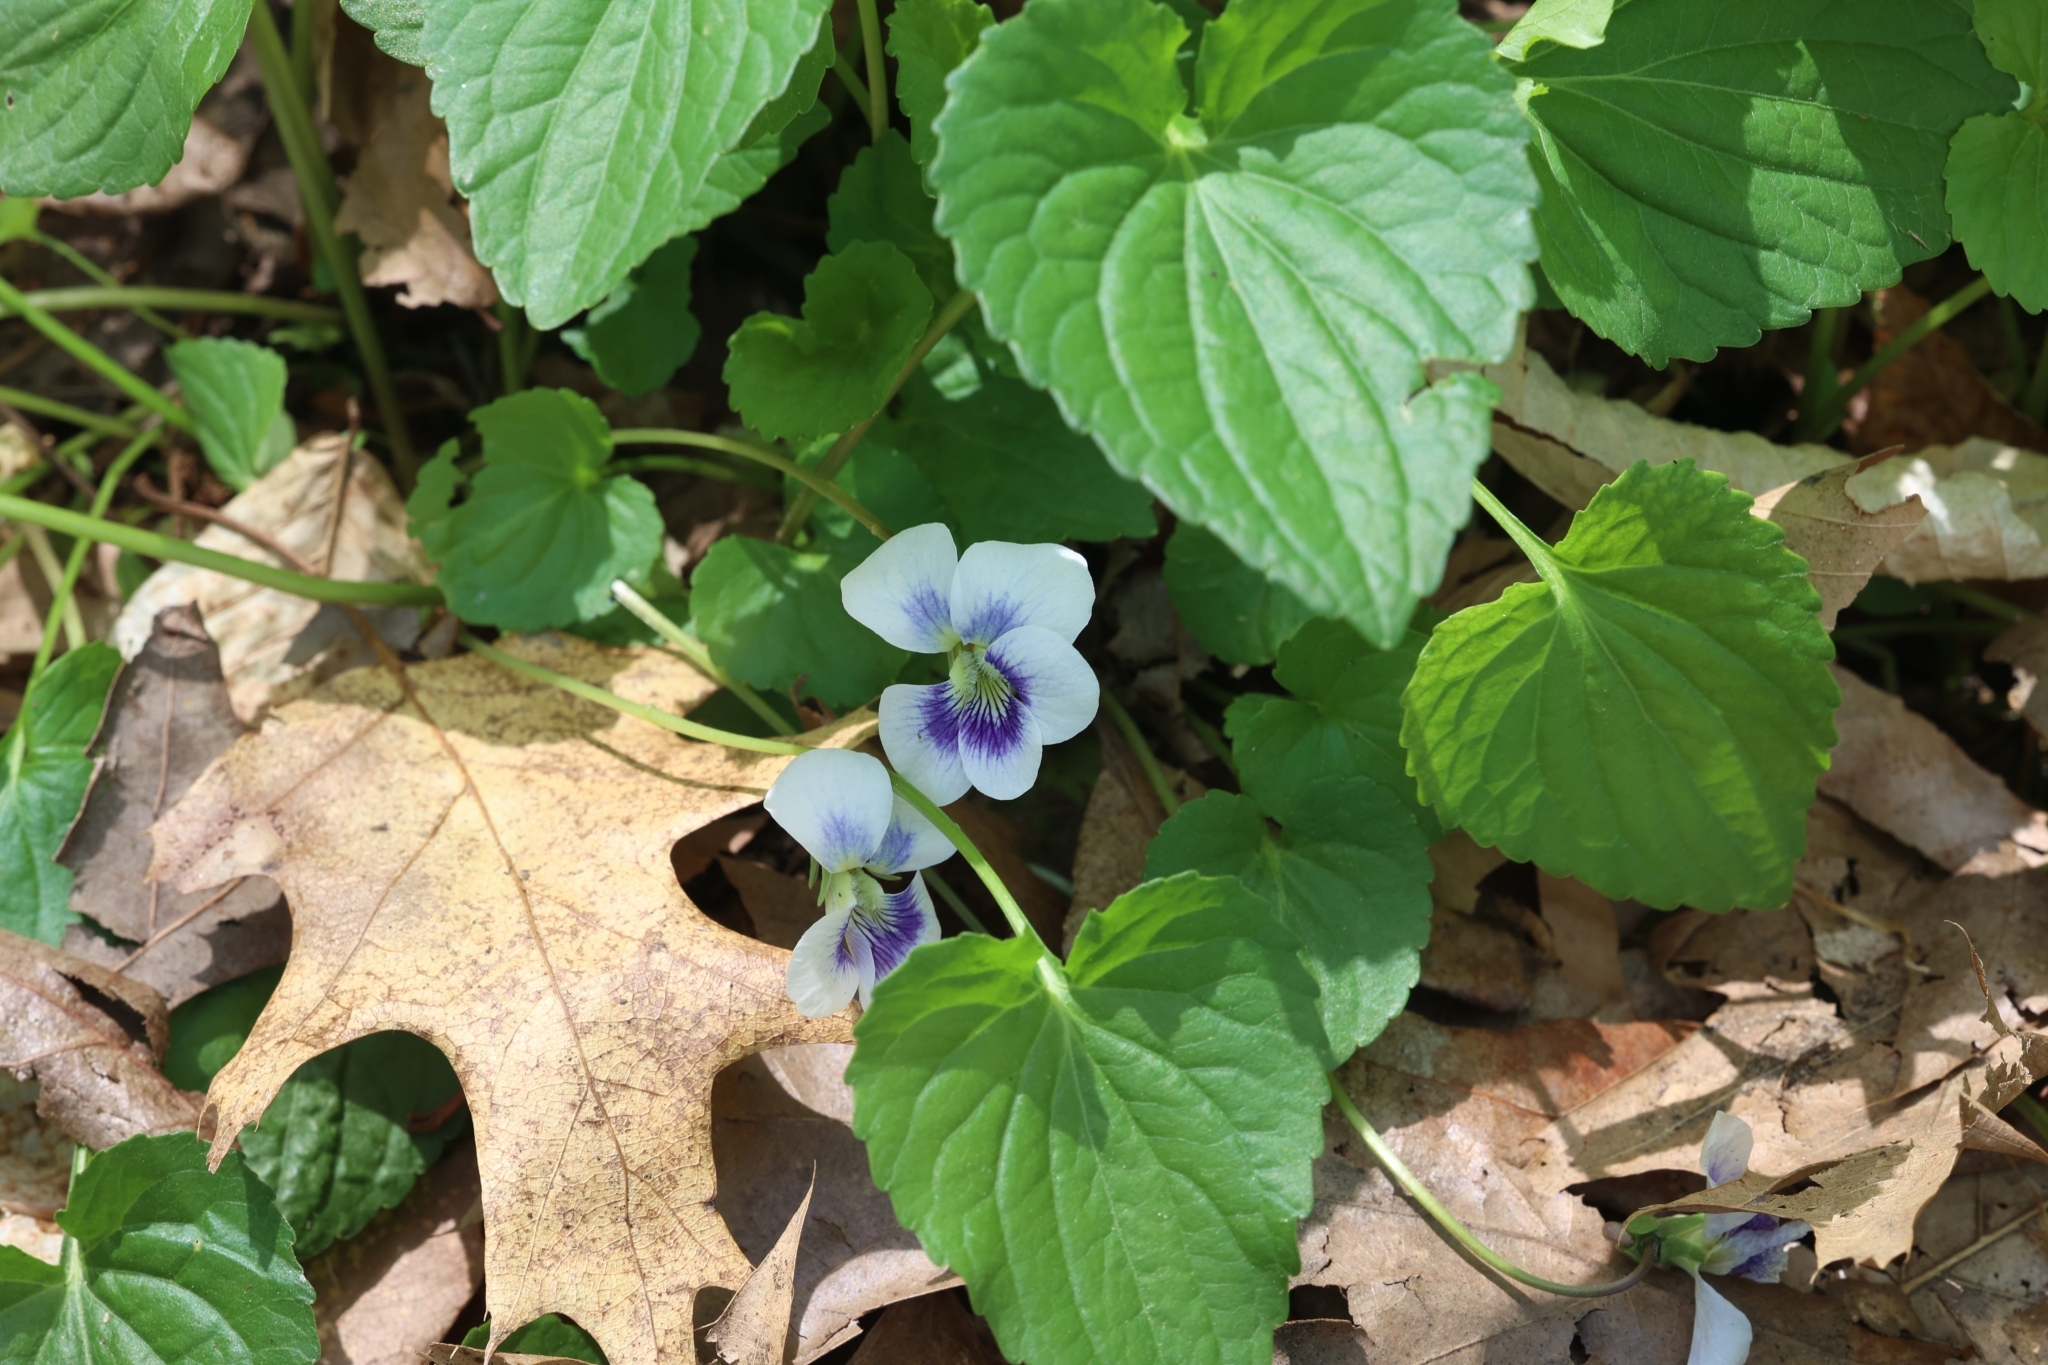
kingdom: Plantae
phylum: Tracheophyta
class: Magnoliopsida
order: Malpighiales
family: Violaceae
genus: Viola
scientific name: Viola sororia
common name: Dooryard violet
